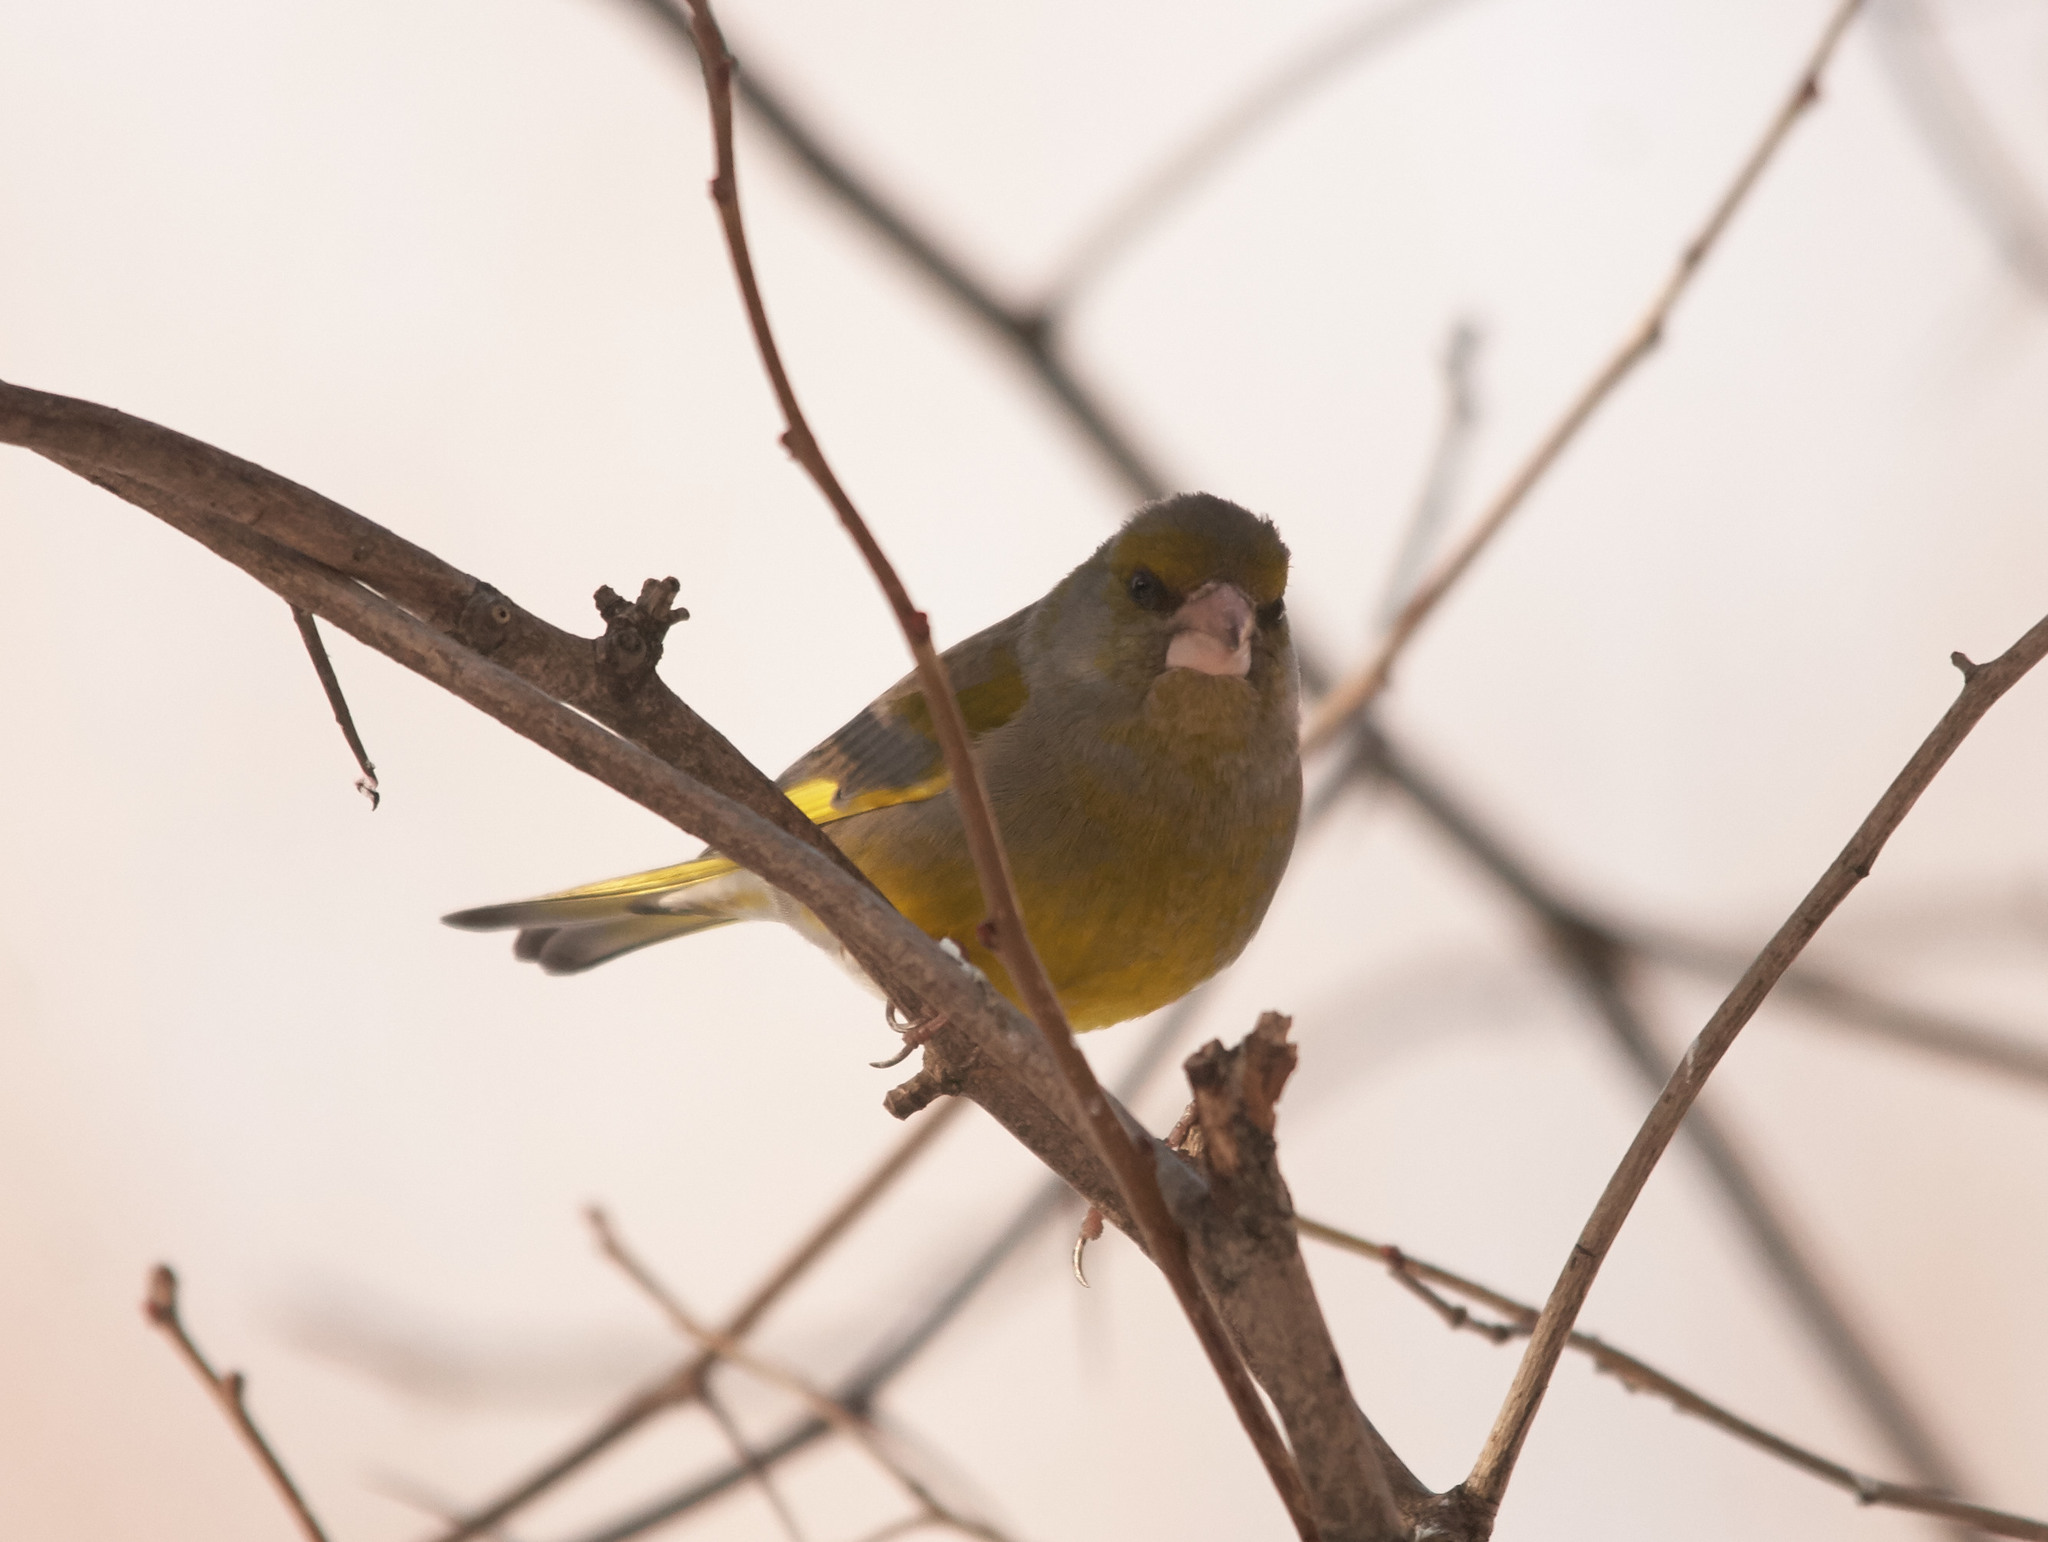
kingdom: Plantae
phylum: Tracheophyta
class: Liliopsida
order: Poales
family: Poaceae
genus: Chloris
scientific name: Chloris chloris
